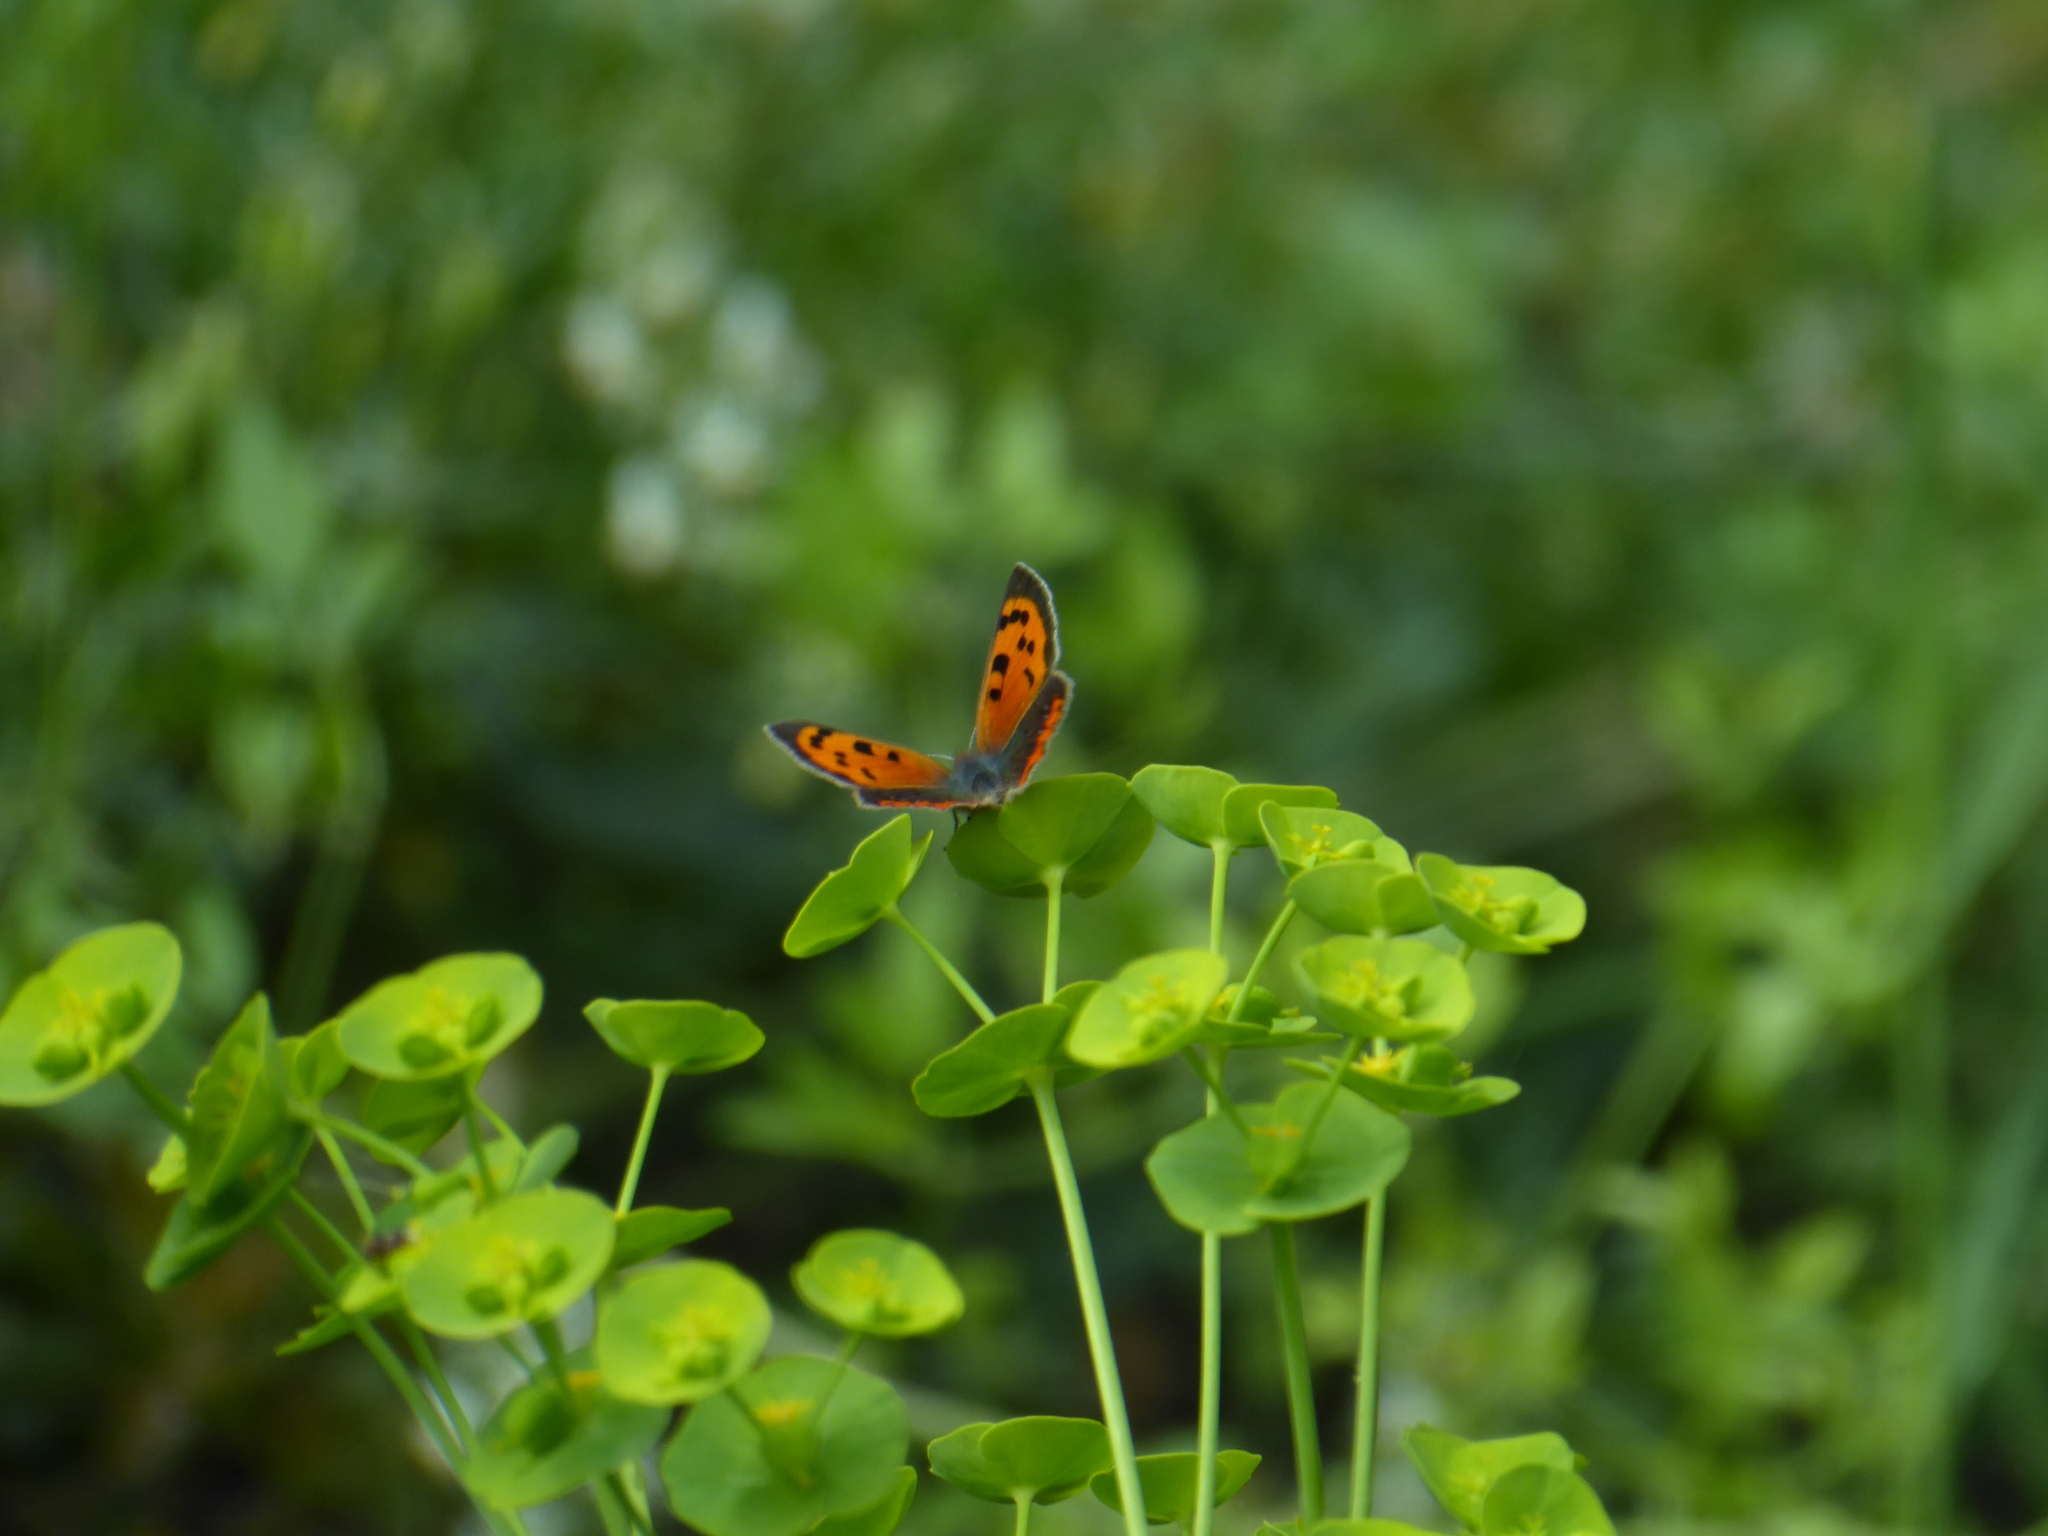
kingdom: Animalia
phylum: Arthropoda
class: Insecta
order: Lepidoptera
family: Lycaenidae
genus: Lycaena
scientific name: Lycaena phlaeas
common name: Small copper
